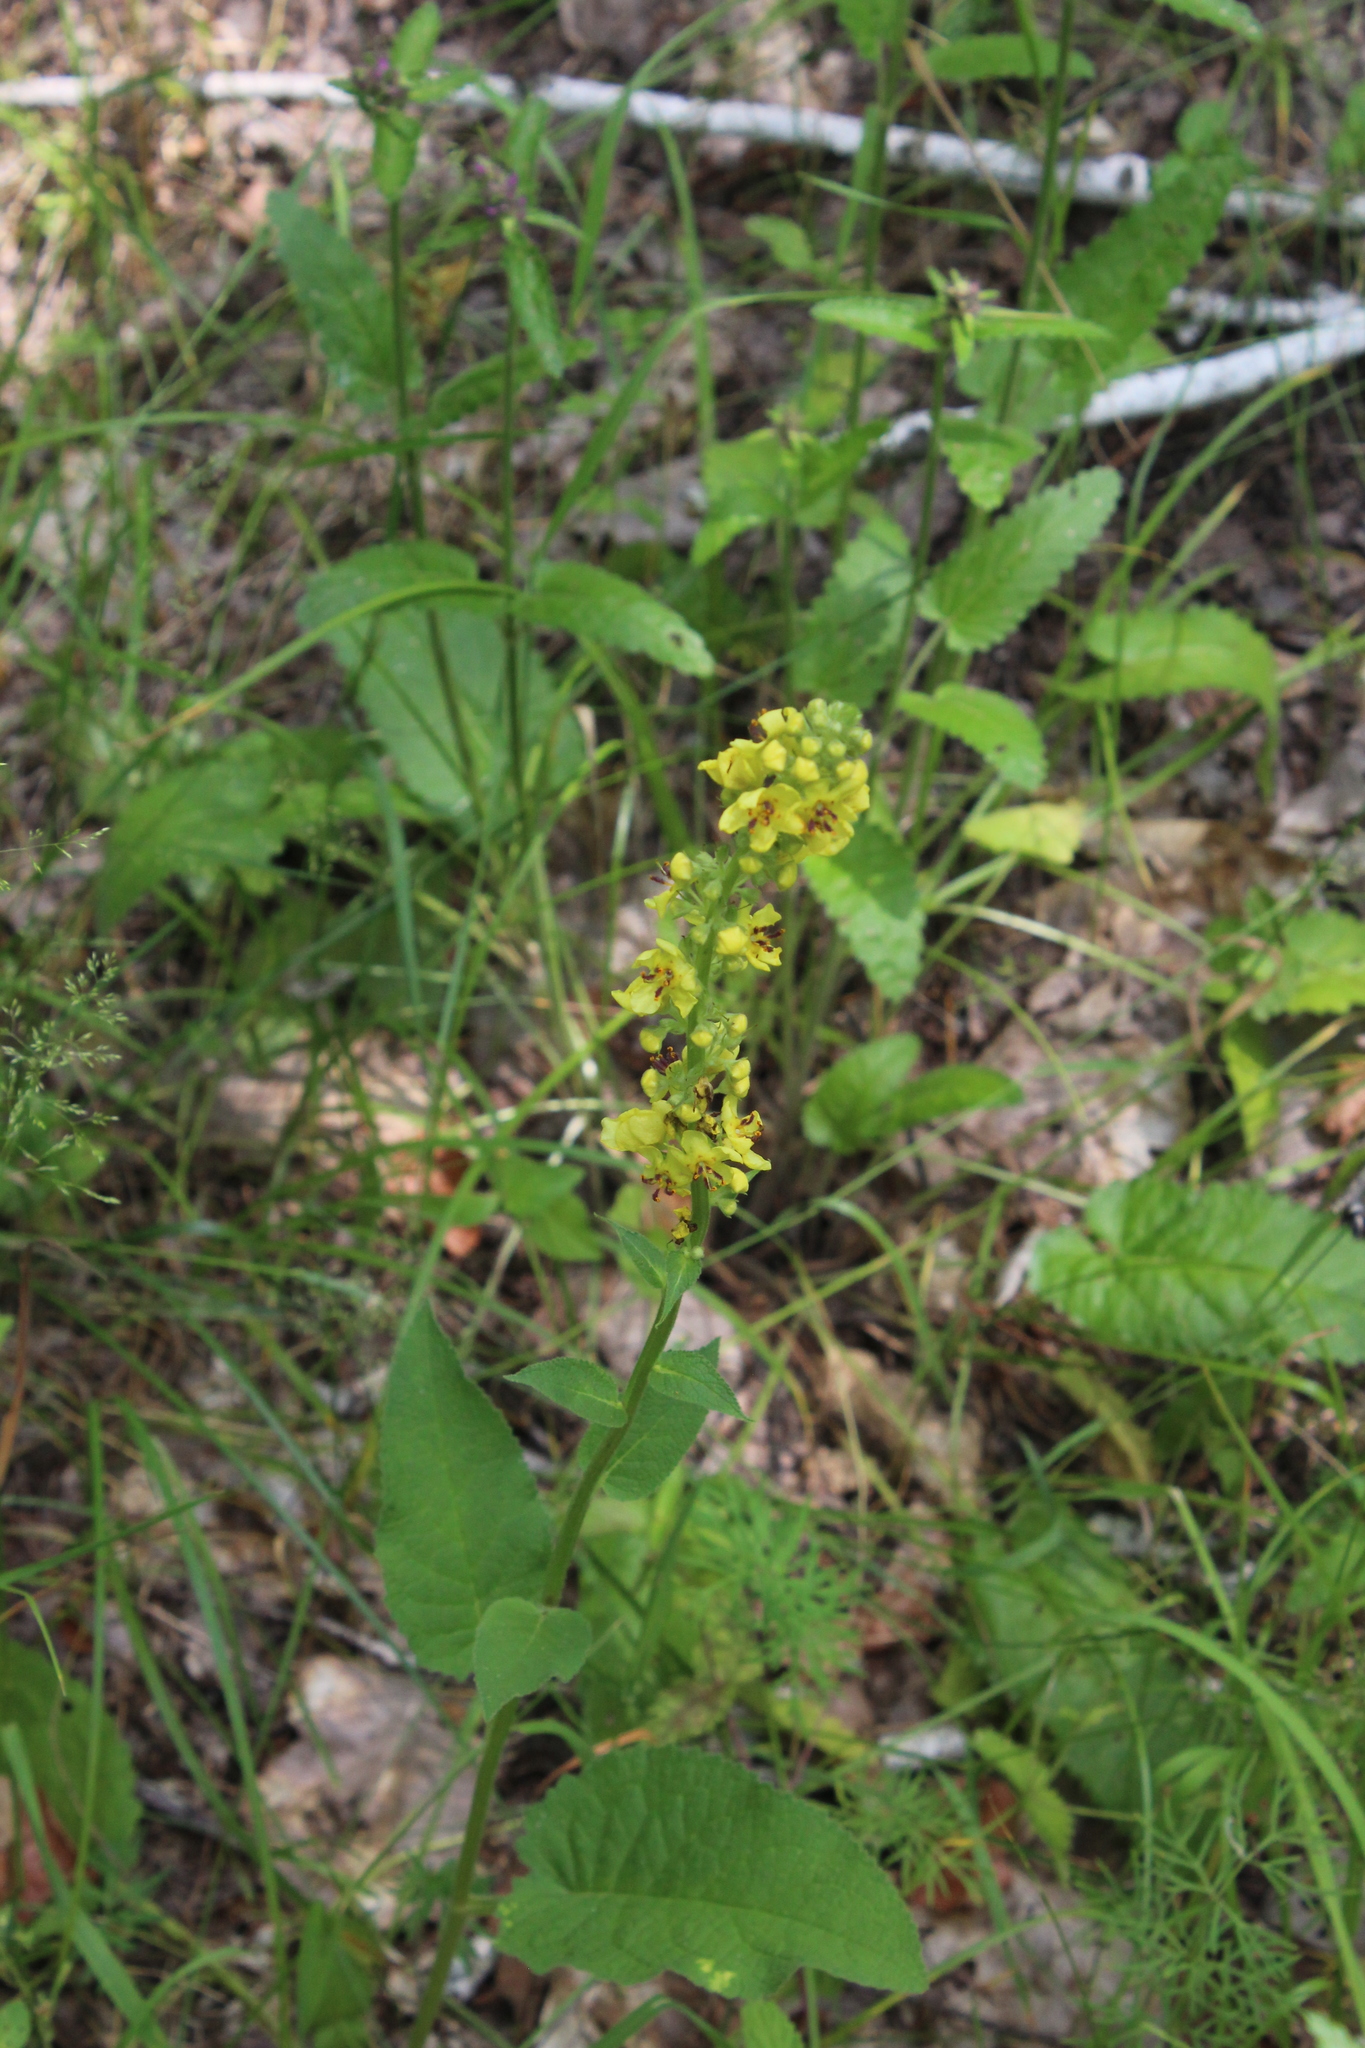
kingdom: Plantae
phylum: Tracheophyta
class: Magnoliopsida
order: Lamiales
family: Scrophulariaceae
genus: Verbascum
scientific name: Verbascum nigrum
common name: Dark mullein
